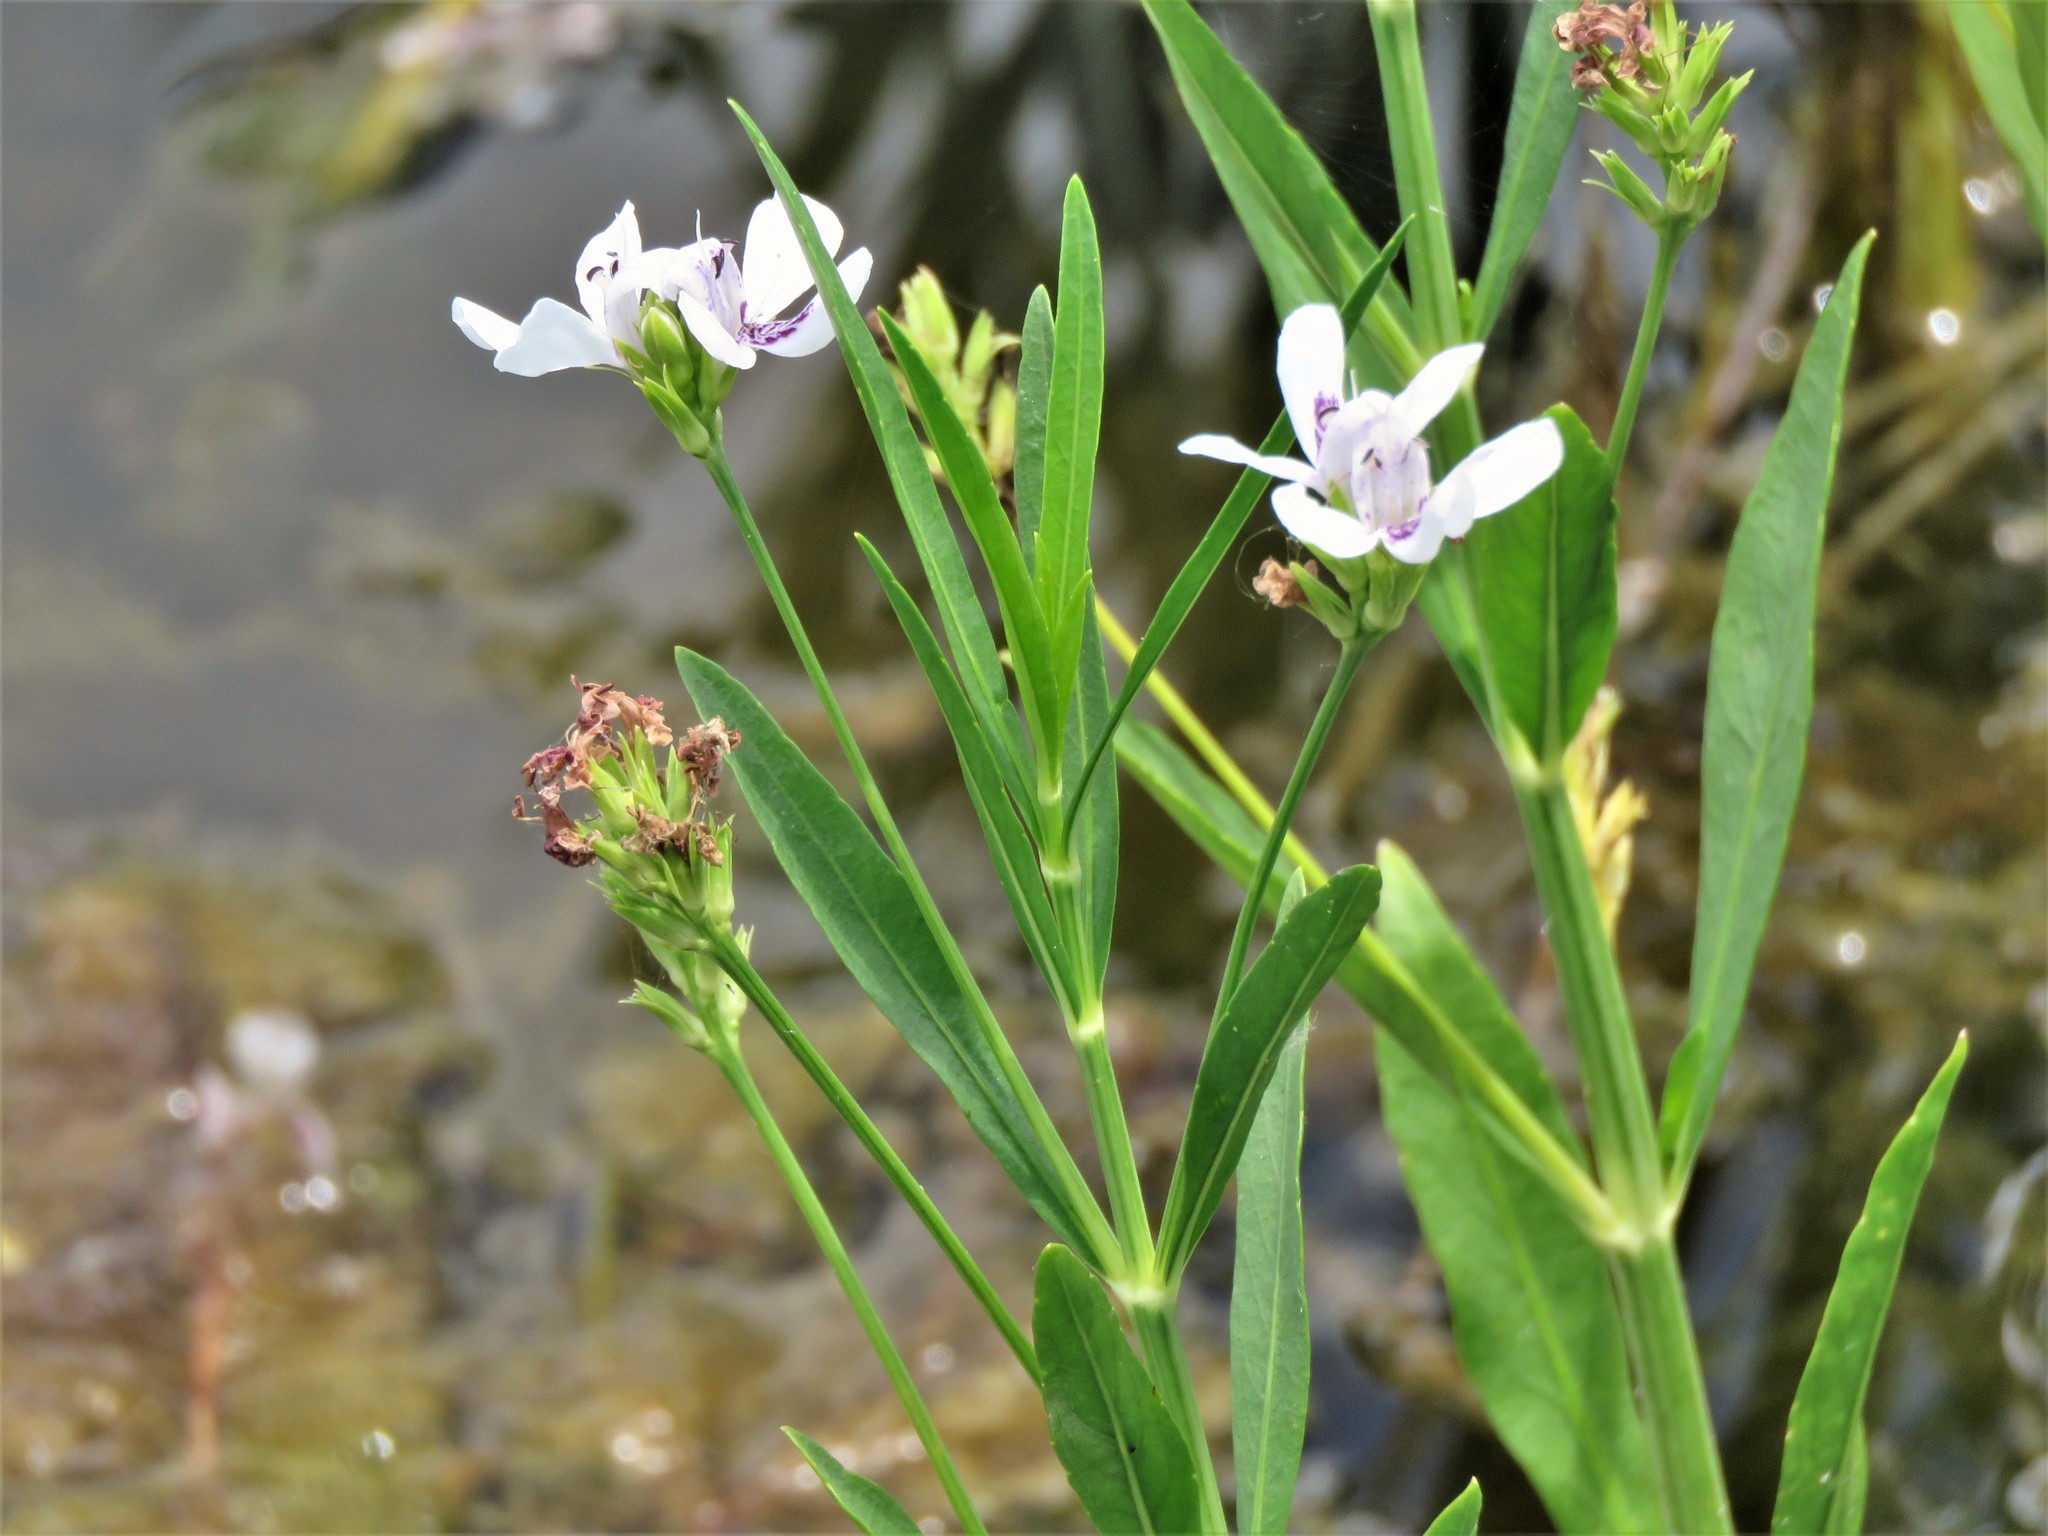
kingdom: Plantae
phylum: Tracheophyta
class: Magnoliopsida
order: Lamiales
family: Acanthaceae
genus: Dianthera
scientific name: Dianthera americana
